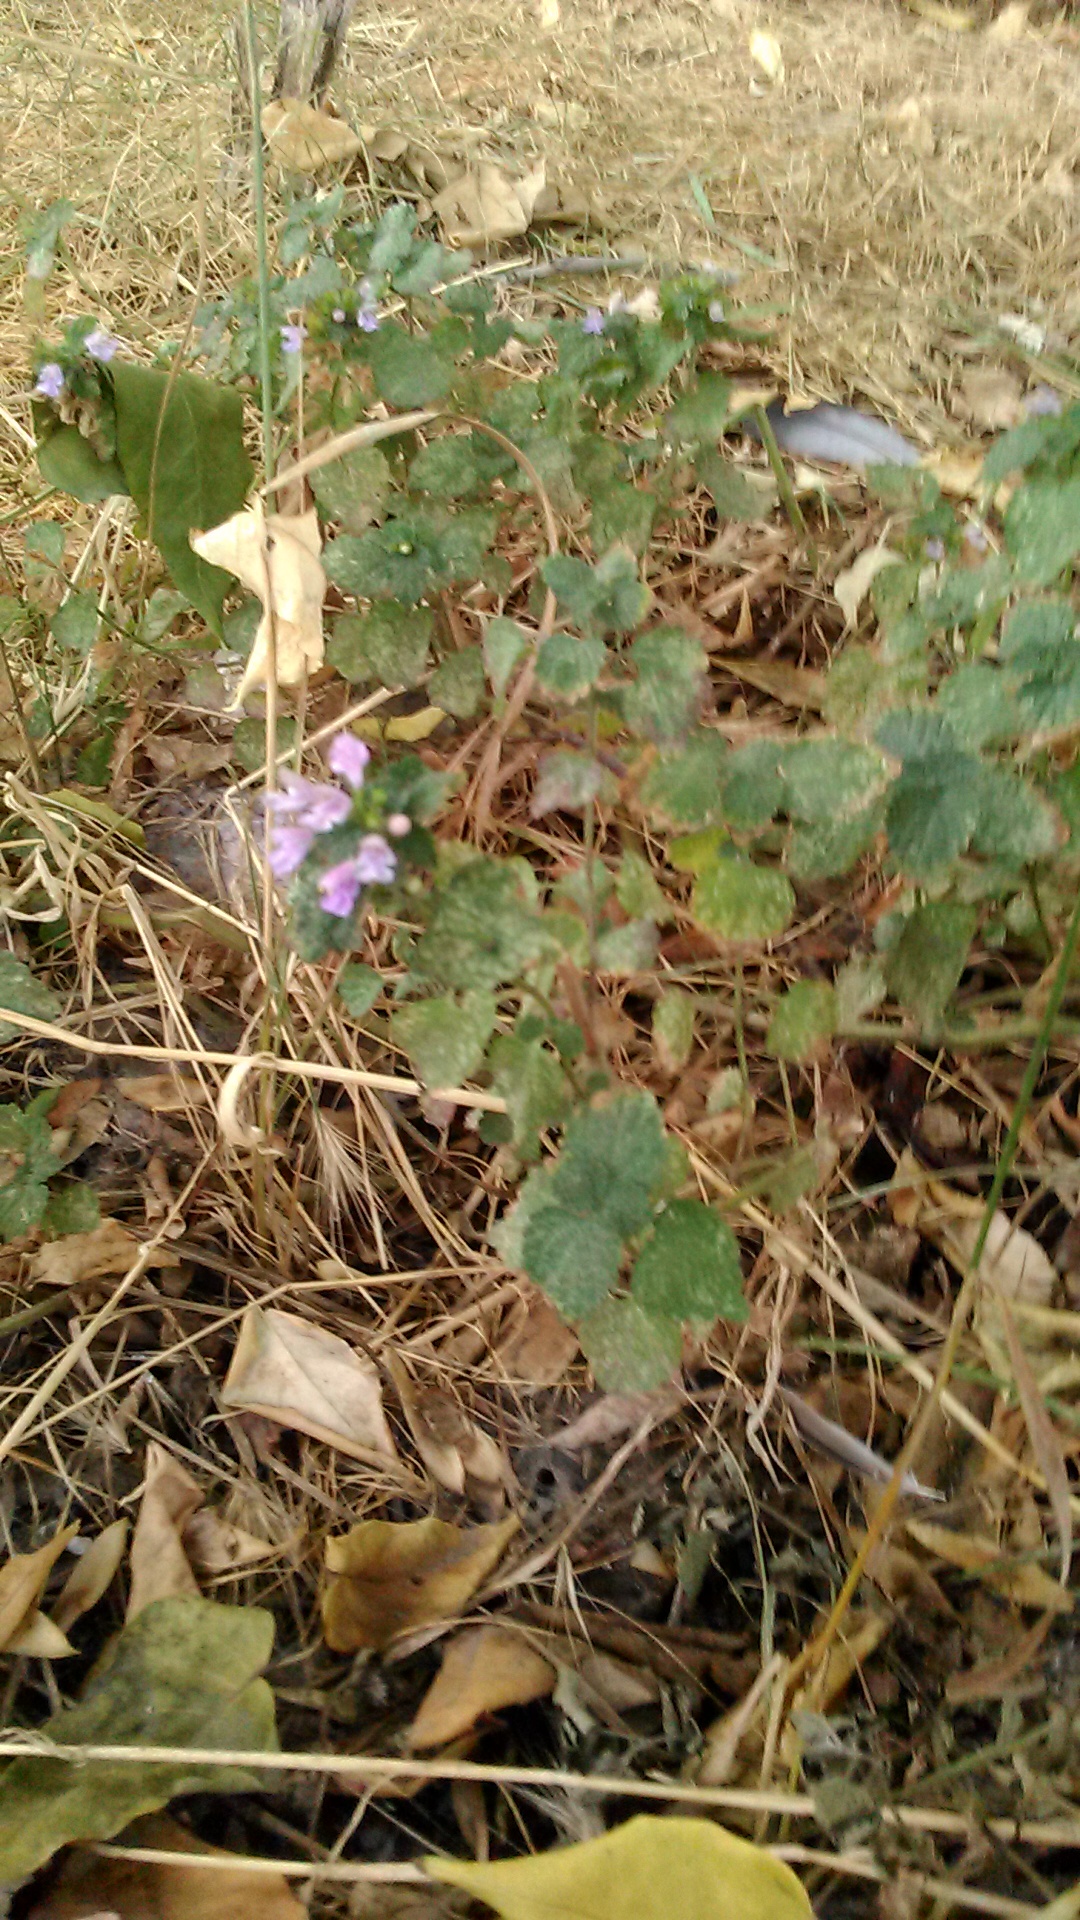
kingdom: Plantae
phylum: Tracheophyta
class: Magnoliopsida
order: Lamiales
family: Lamiaceae
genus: Ballota
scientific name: Ballota nigra
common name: Black horehound
